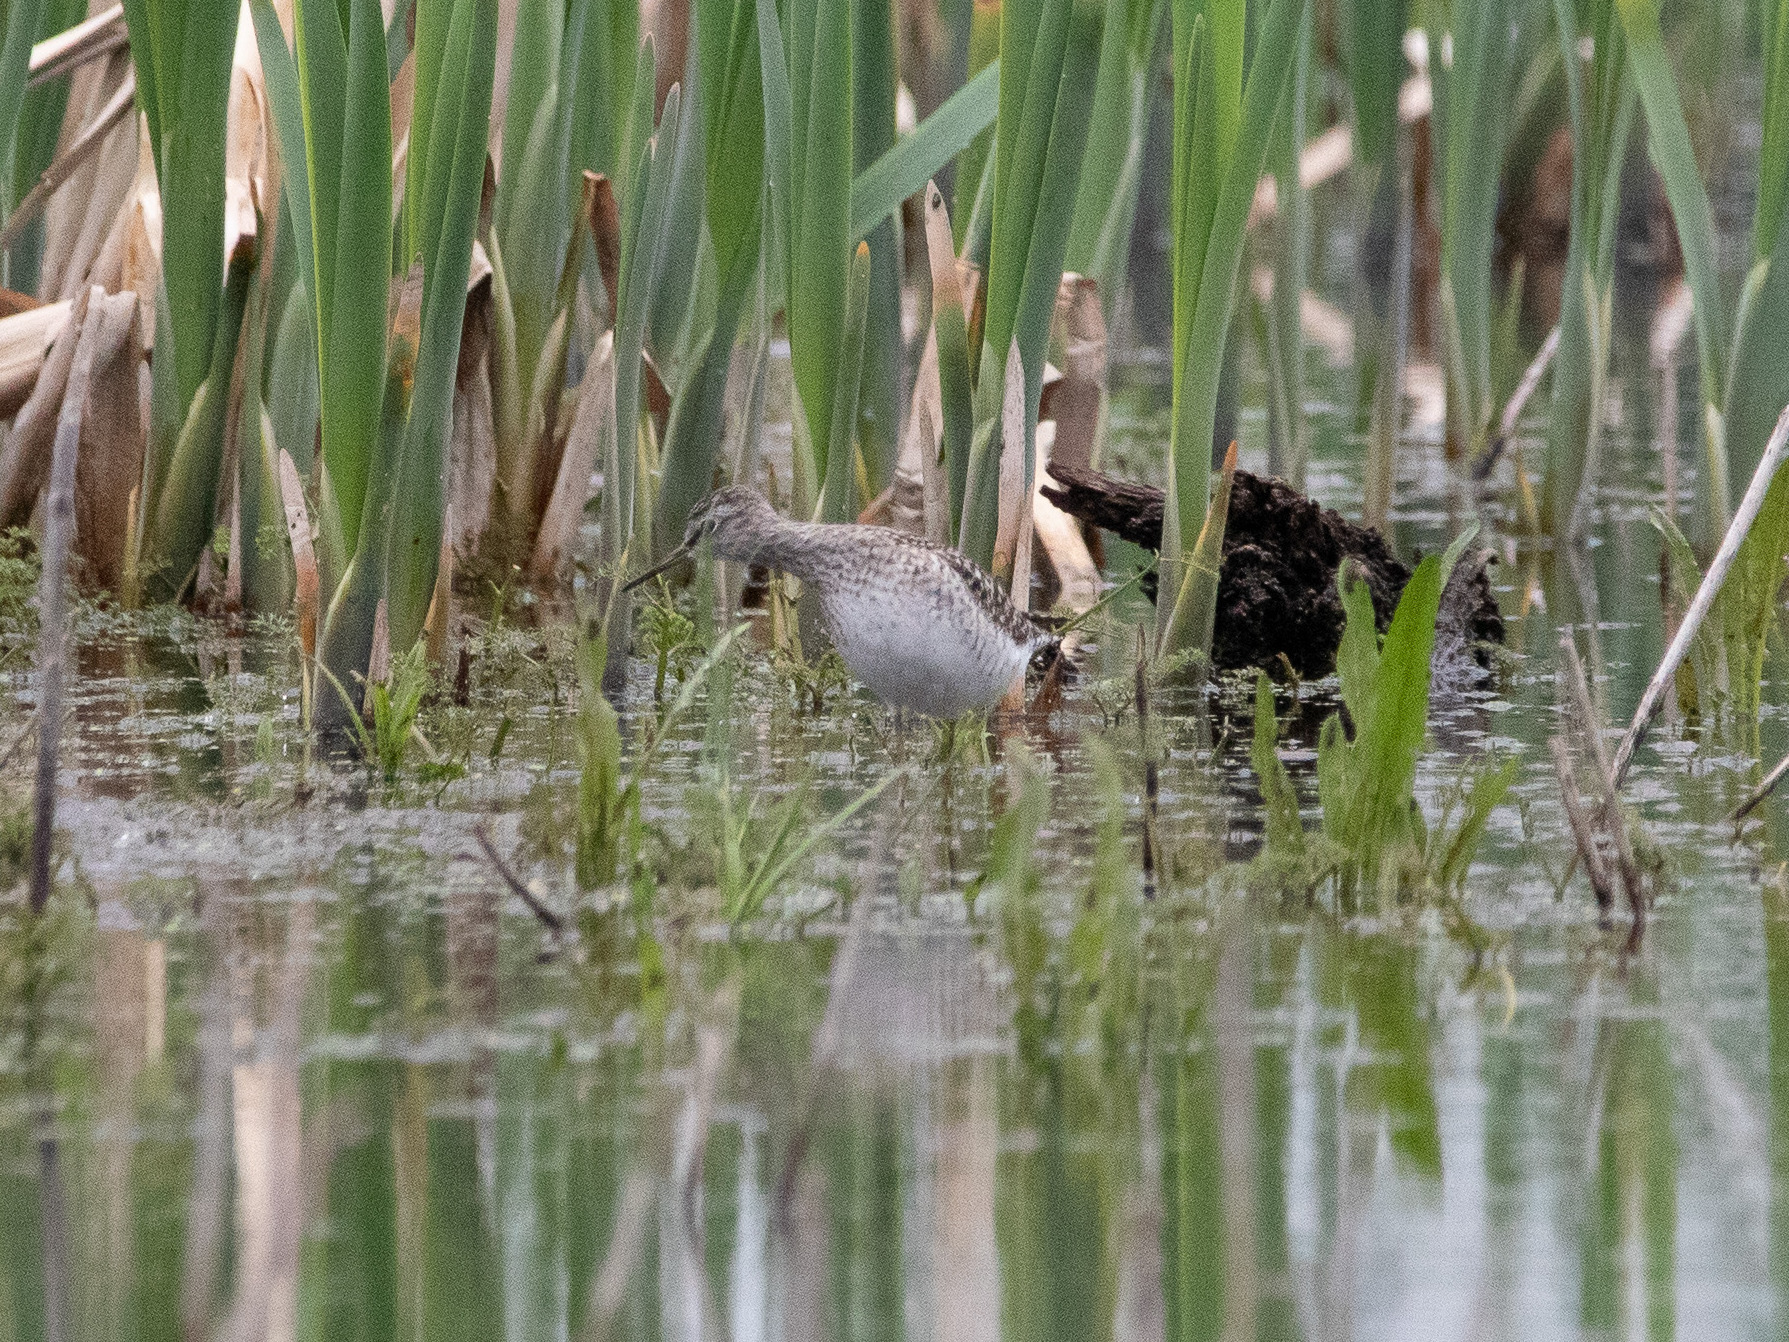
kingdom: Animalia
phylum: Chordata
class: Aves
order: Charadriiformes
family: Scolopacidae
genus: Tringa
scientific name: Tringa glareola
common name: Wood sandpiper
